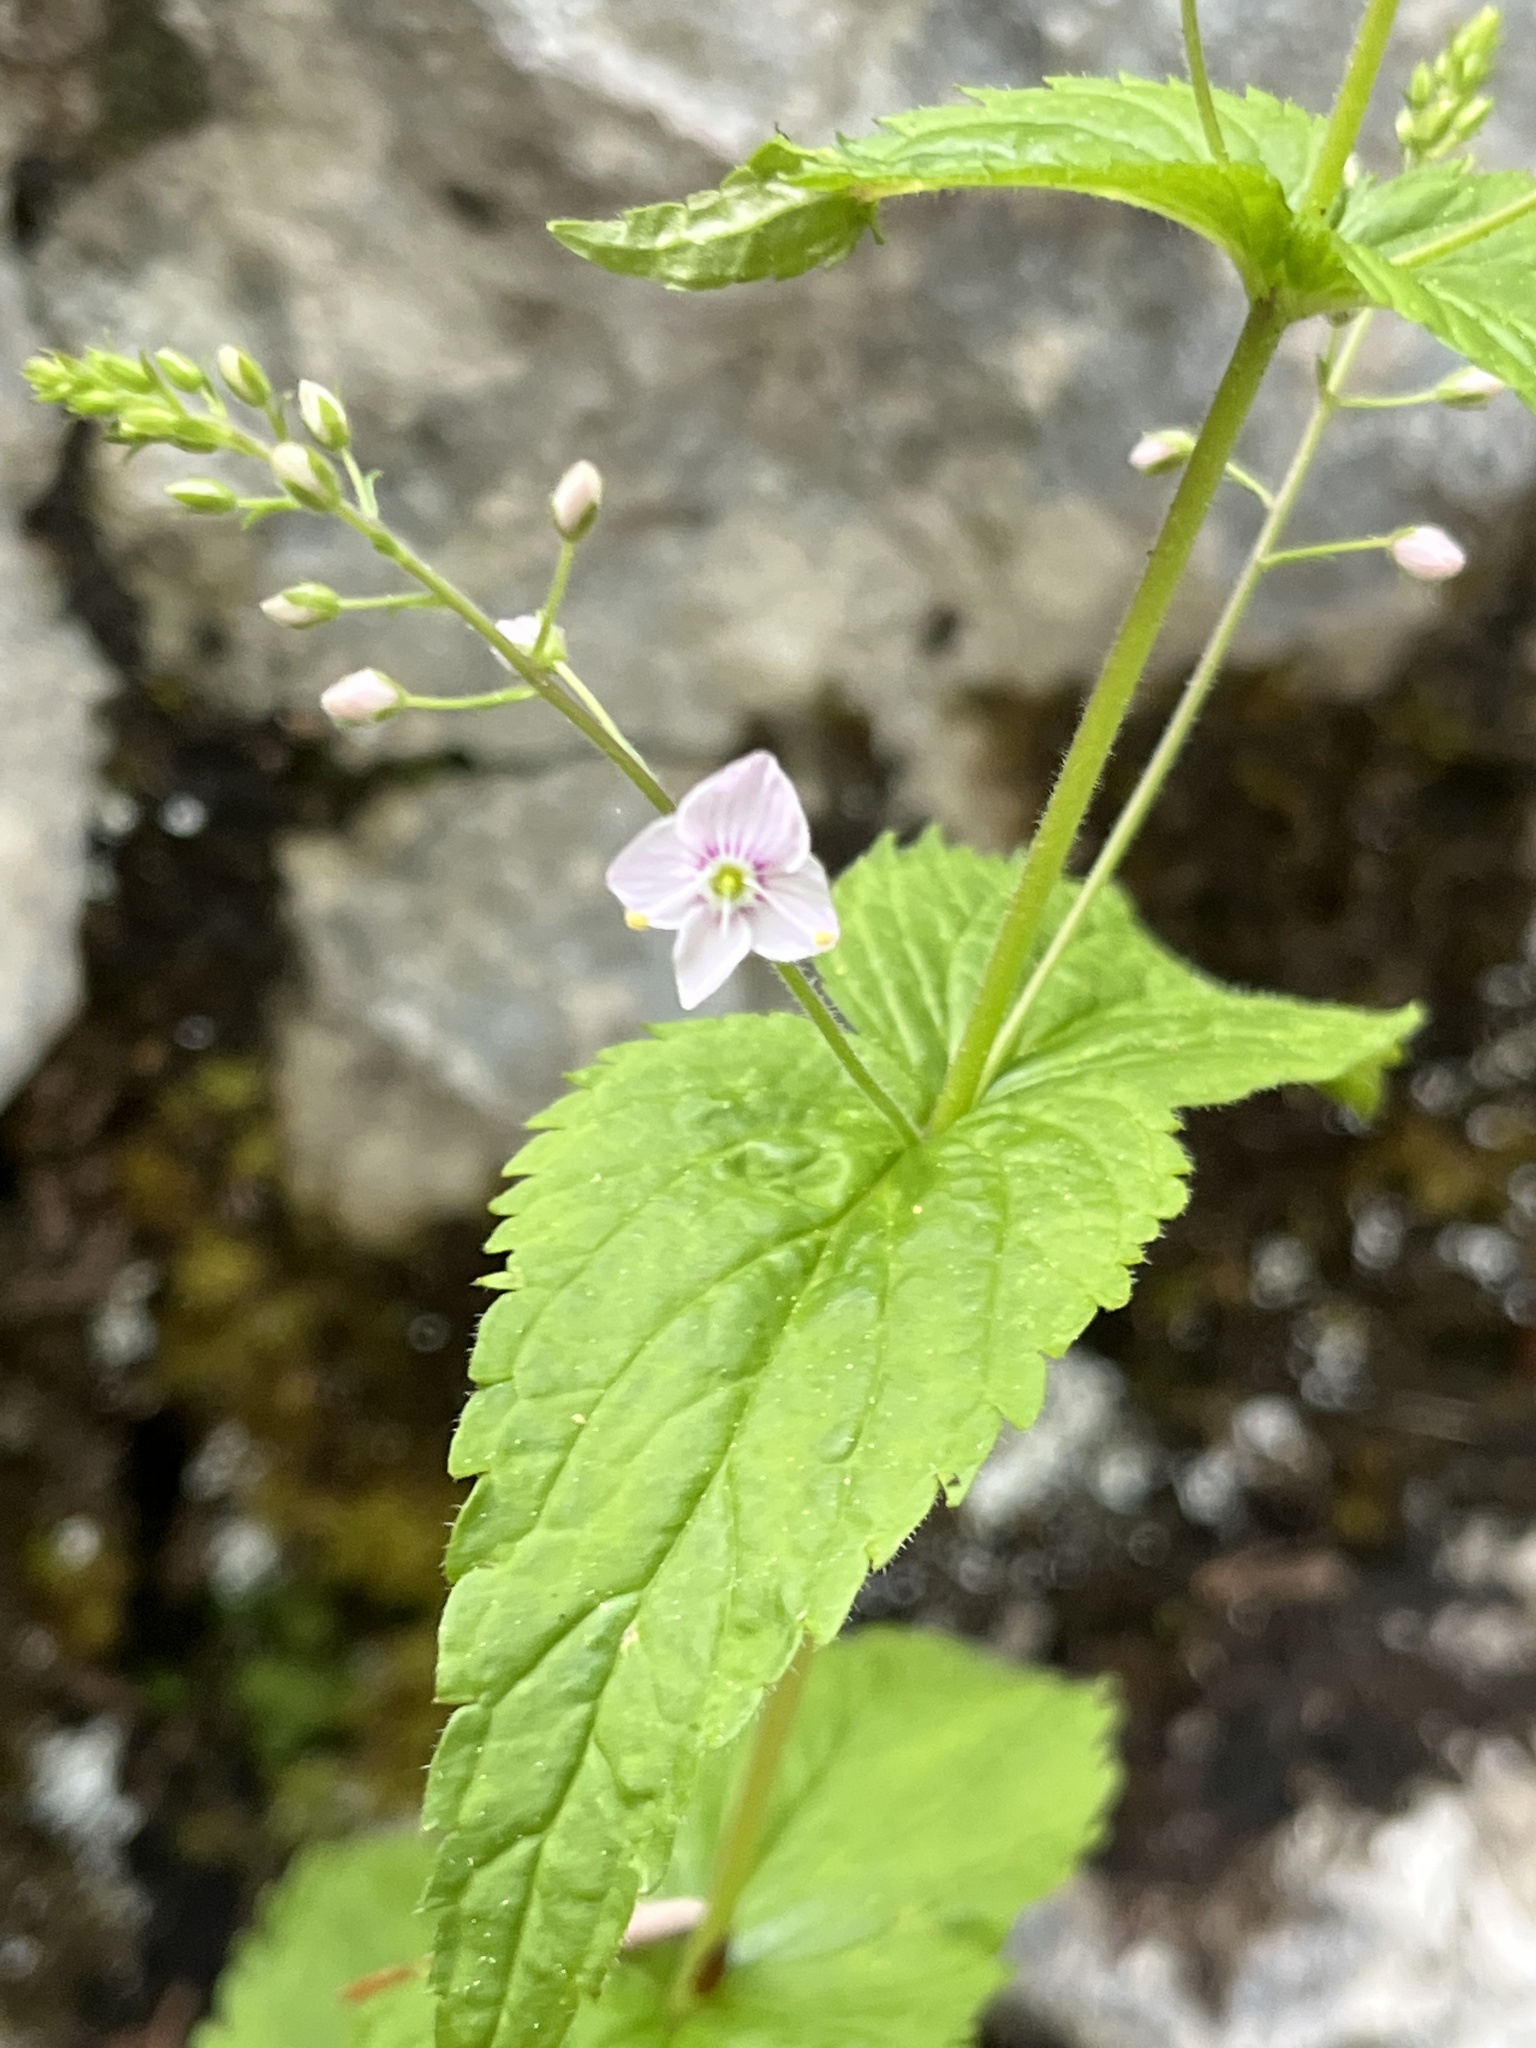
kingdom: Plantae
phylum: Tracheophyta
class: Magnoliopsida
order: Lamiales
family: Plantaginaceae
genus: Veronica
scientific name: Veronica urticifolia
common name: Nettle-leaf speedwell
